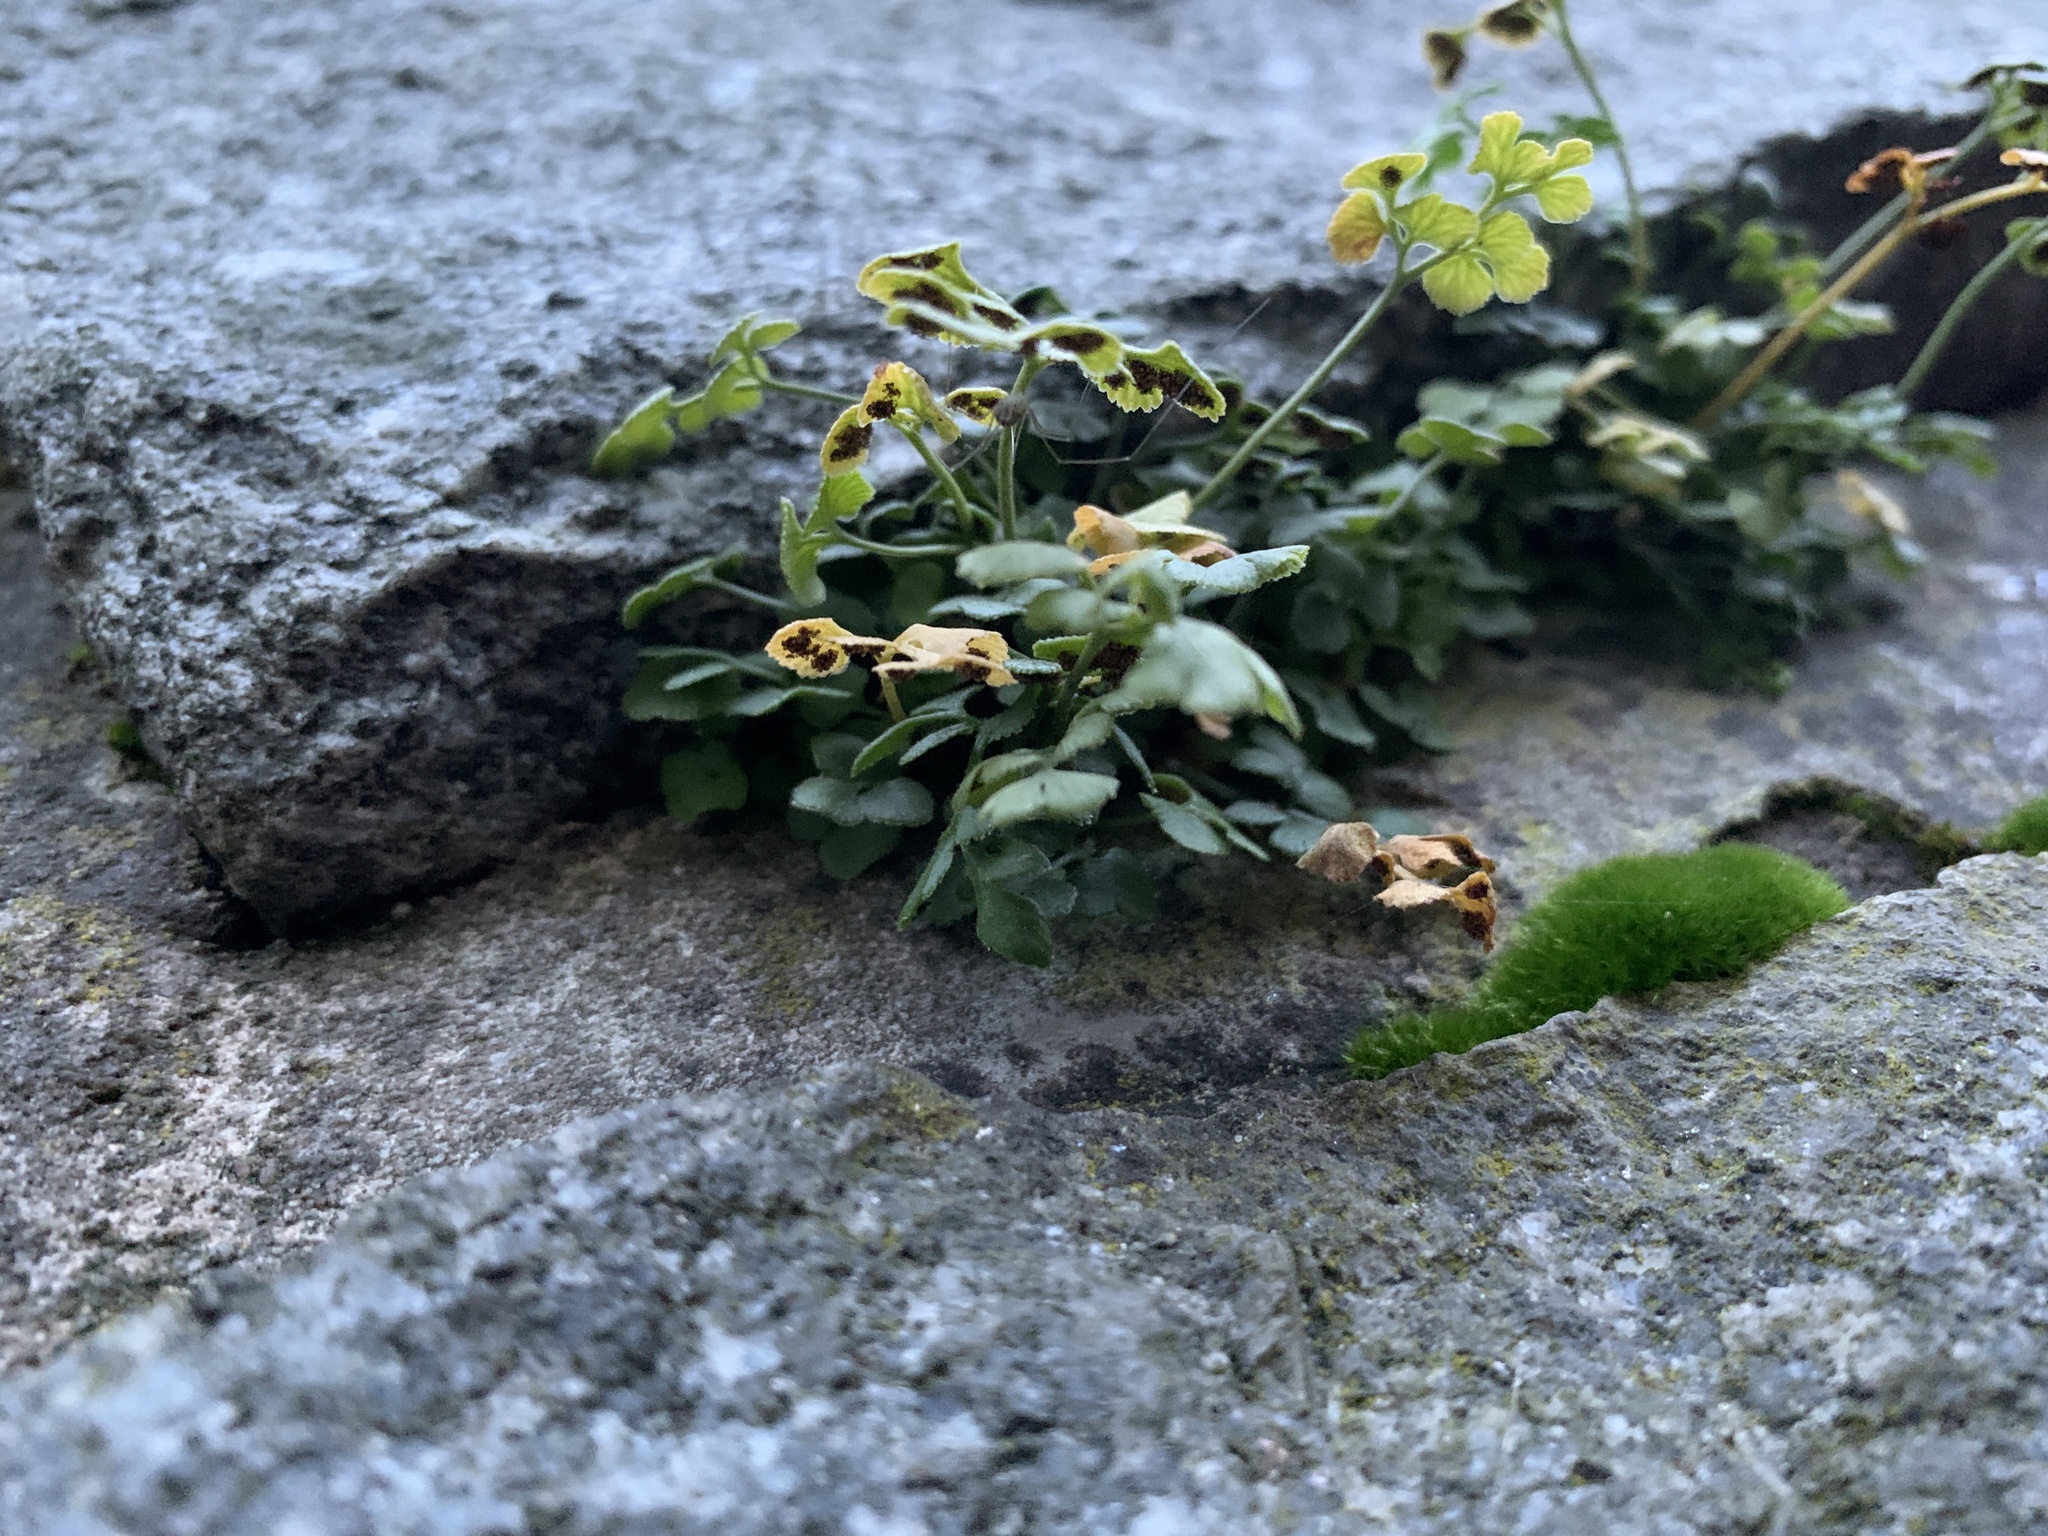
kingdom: Plantae
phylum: Tracheophyta
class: Polypodiopsida
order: Polypodiales
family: Aspleniaceae
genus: Asplenium
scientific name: Asplenium ruta-muraria
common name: Wall-rue
